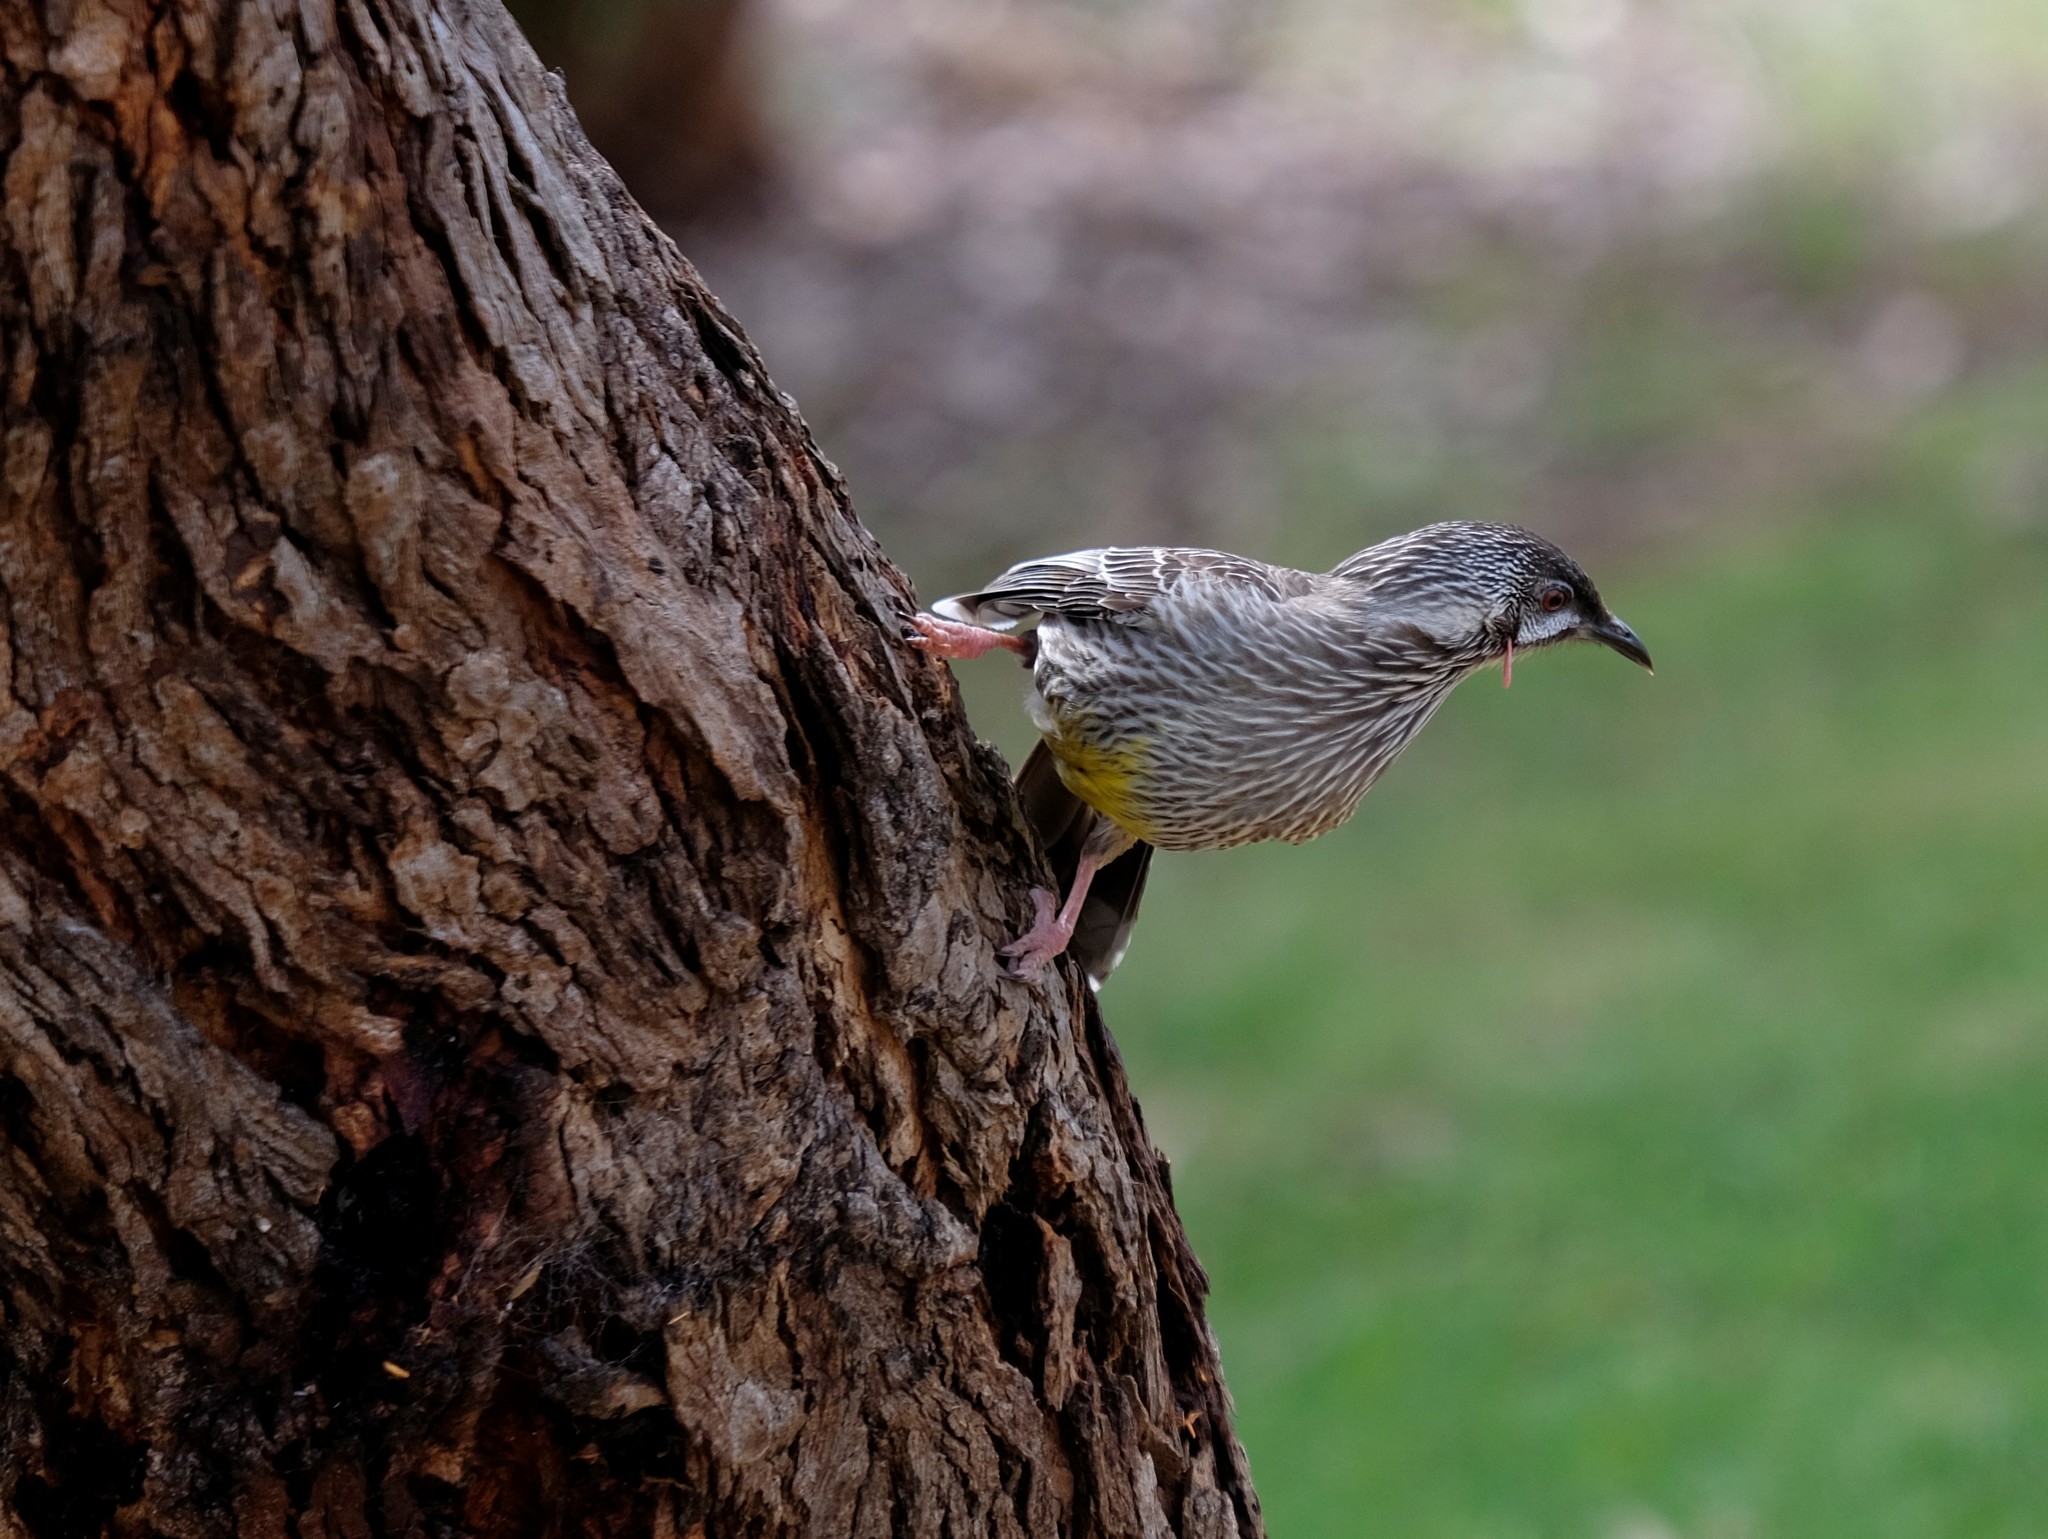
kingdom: Animalia
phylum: Chordata
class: Aves
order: Passeriformes
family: Meliphagidae
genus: Anthochaera
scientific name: Anthochaera carunculata
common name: Red wattlebird
